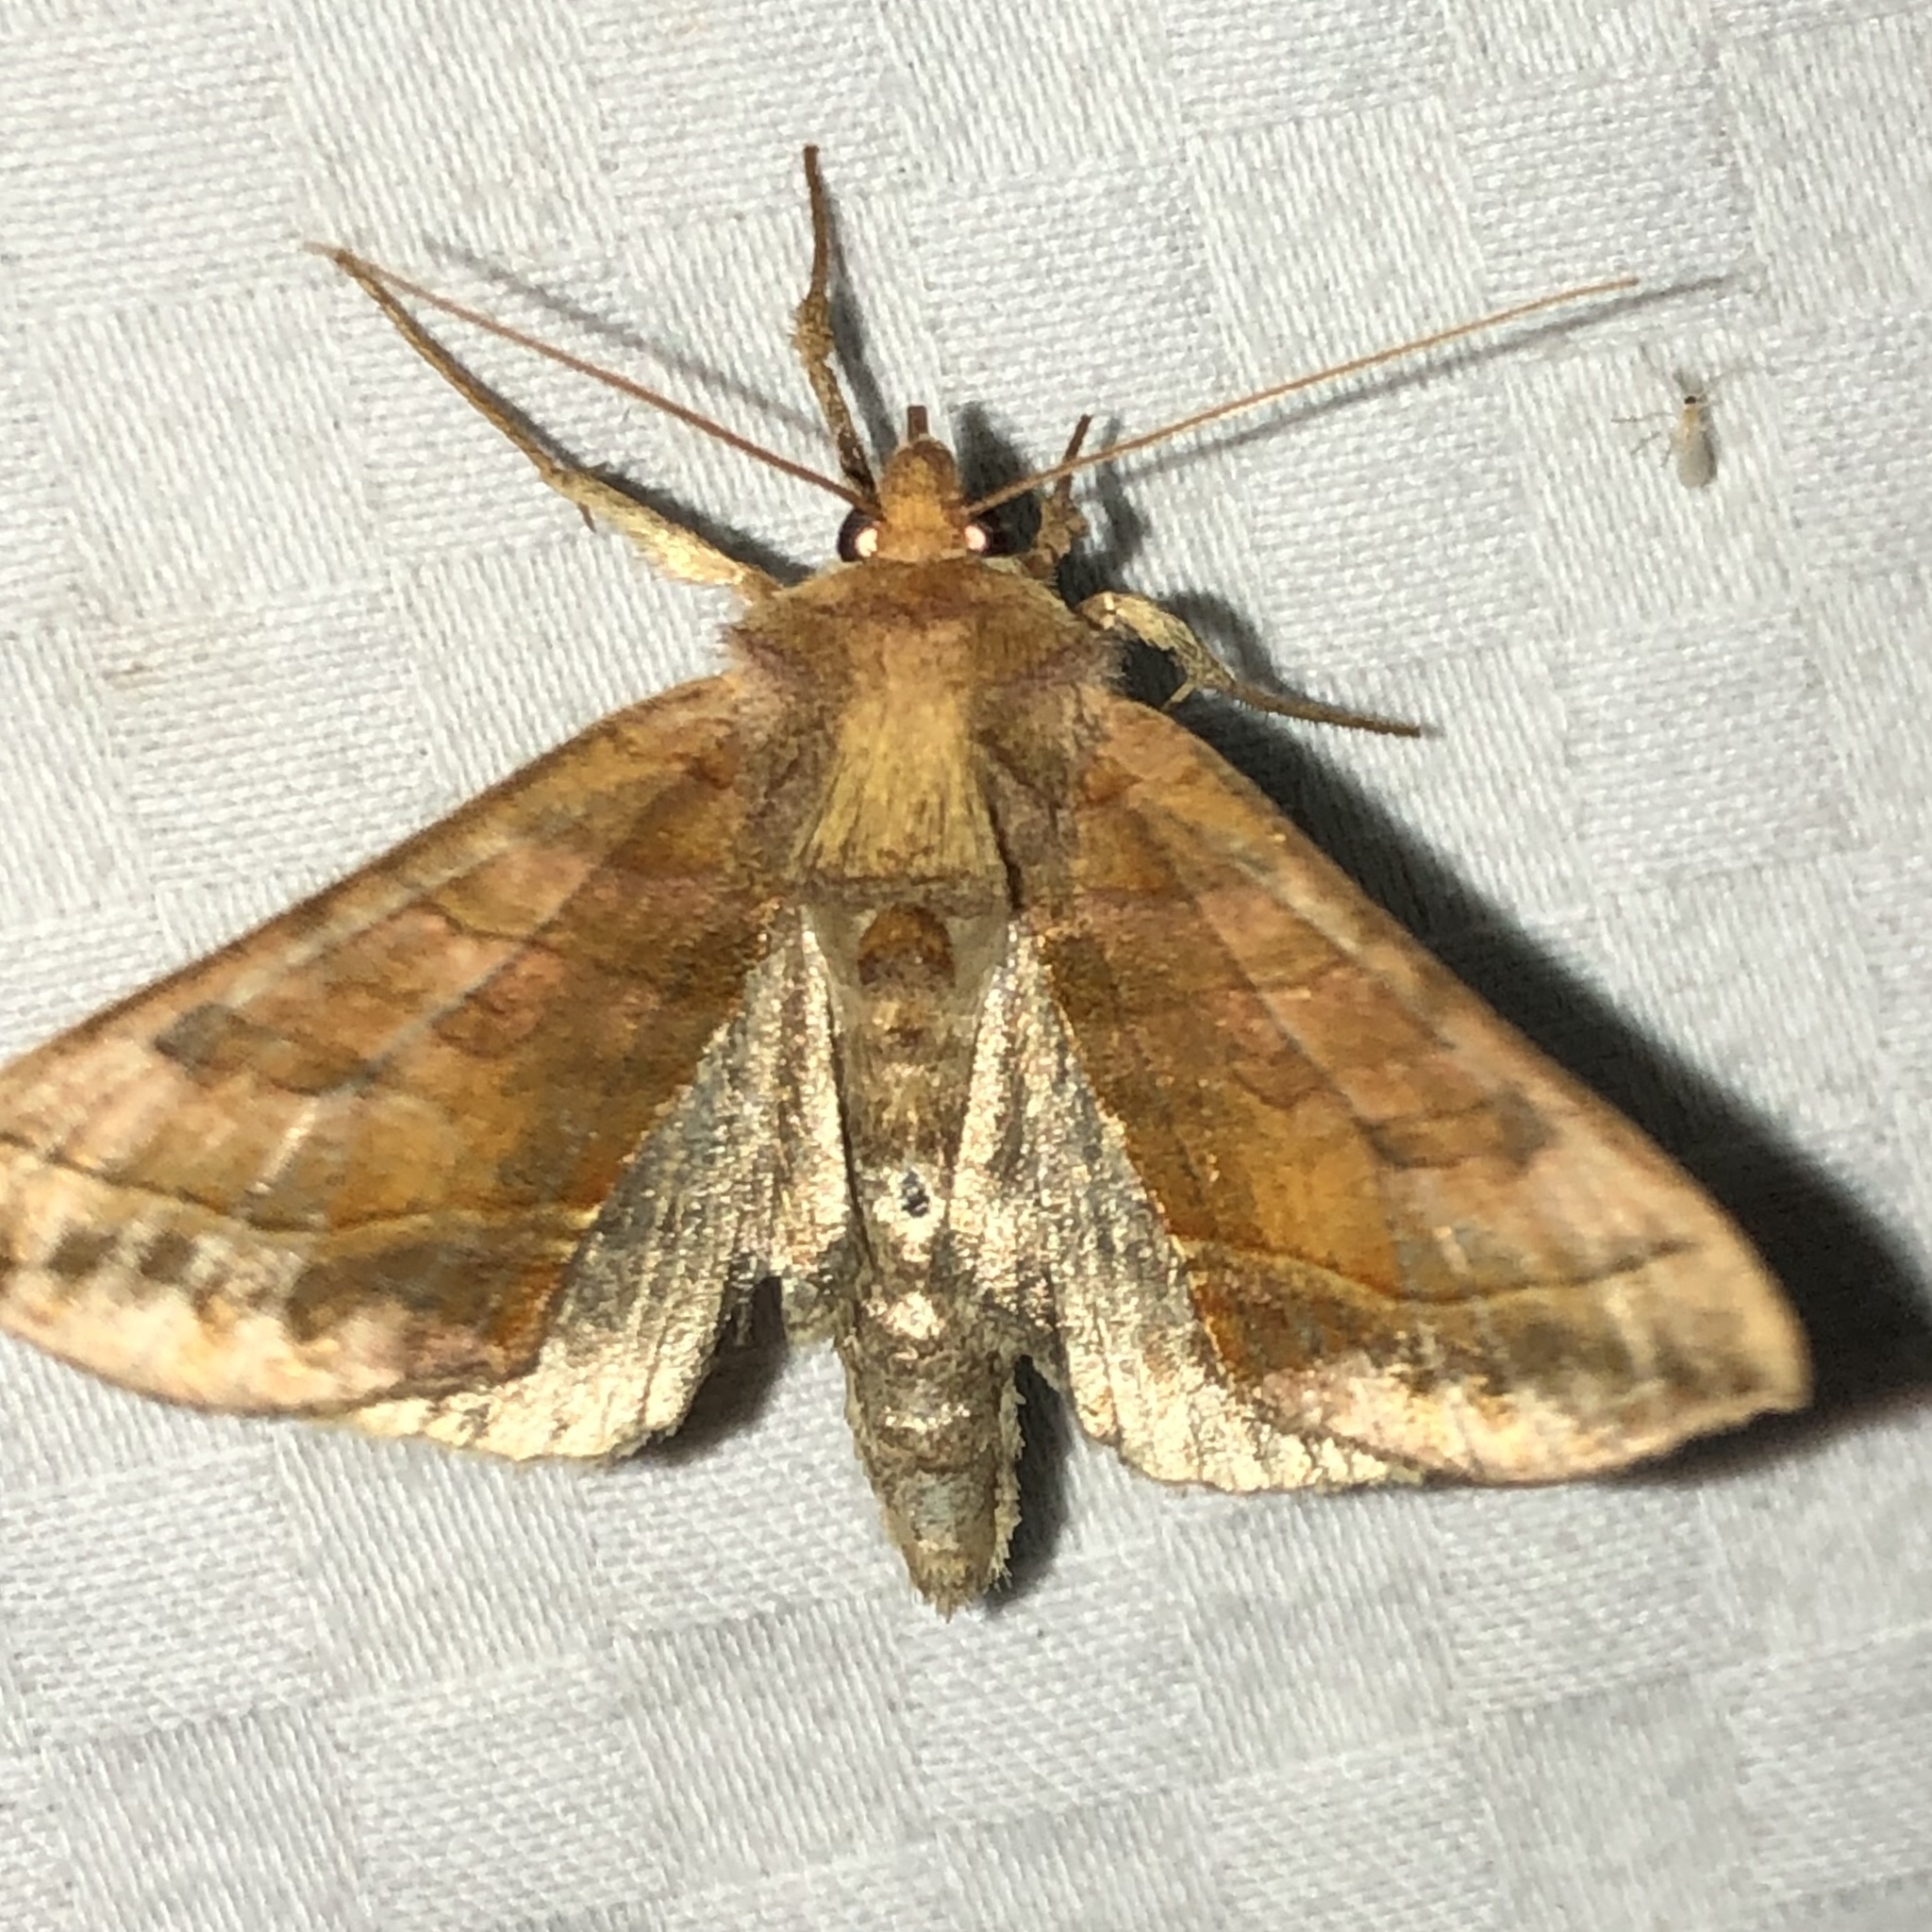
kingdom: Animalia
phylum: Arthropoda
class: Insecta
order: Lepidoptera
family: Noctuidae
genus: Diachrysia
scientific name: Diachrysia aereoides
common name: Dark-spotted looper moth
